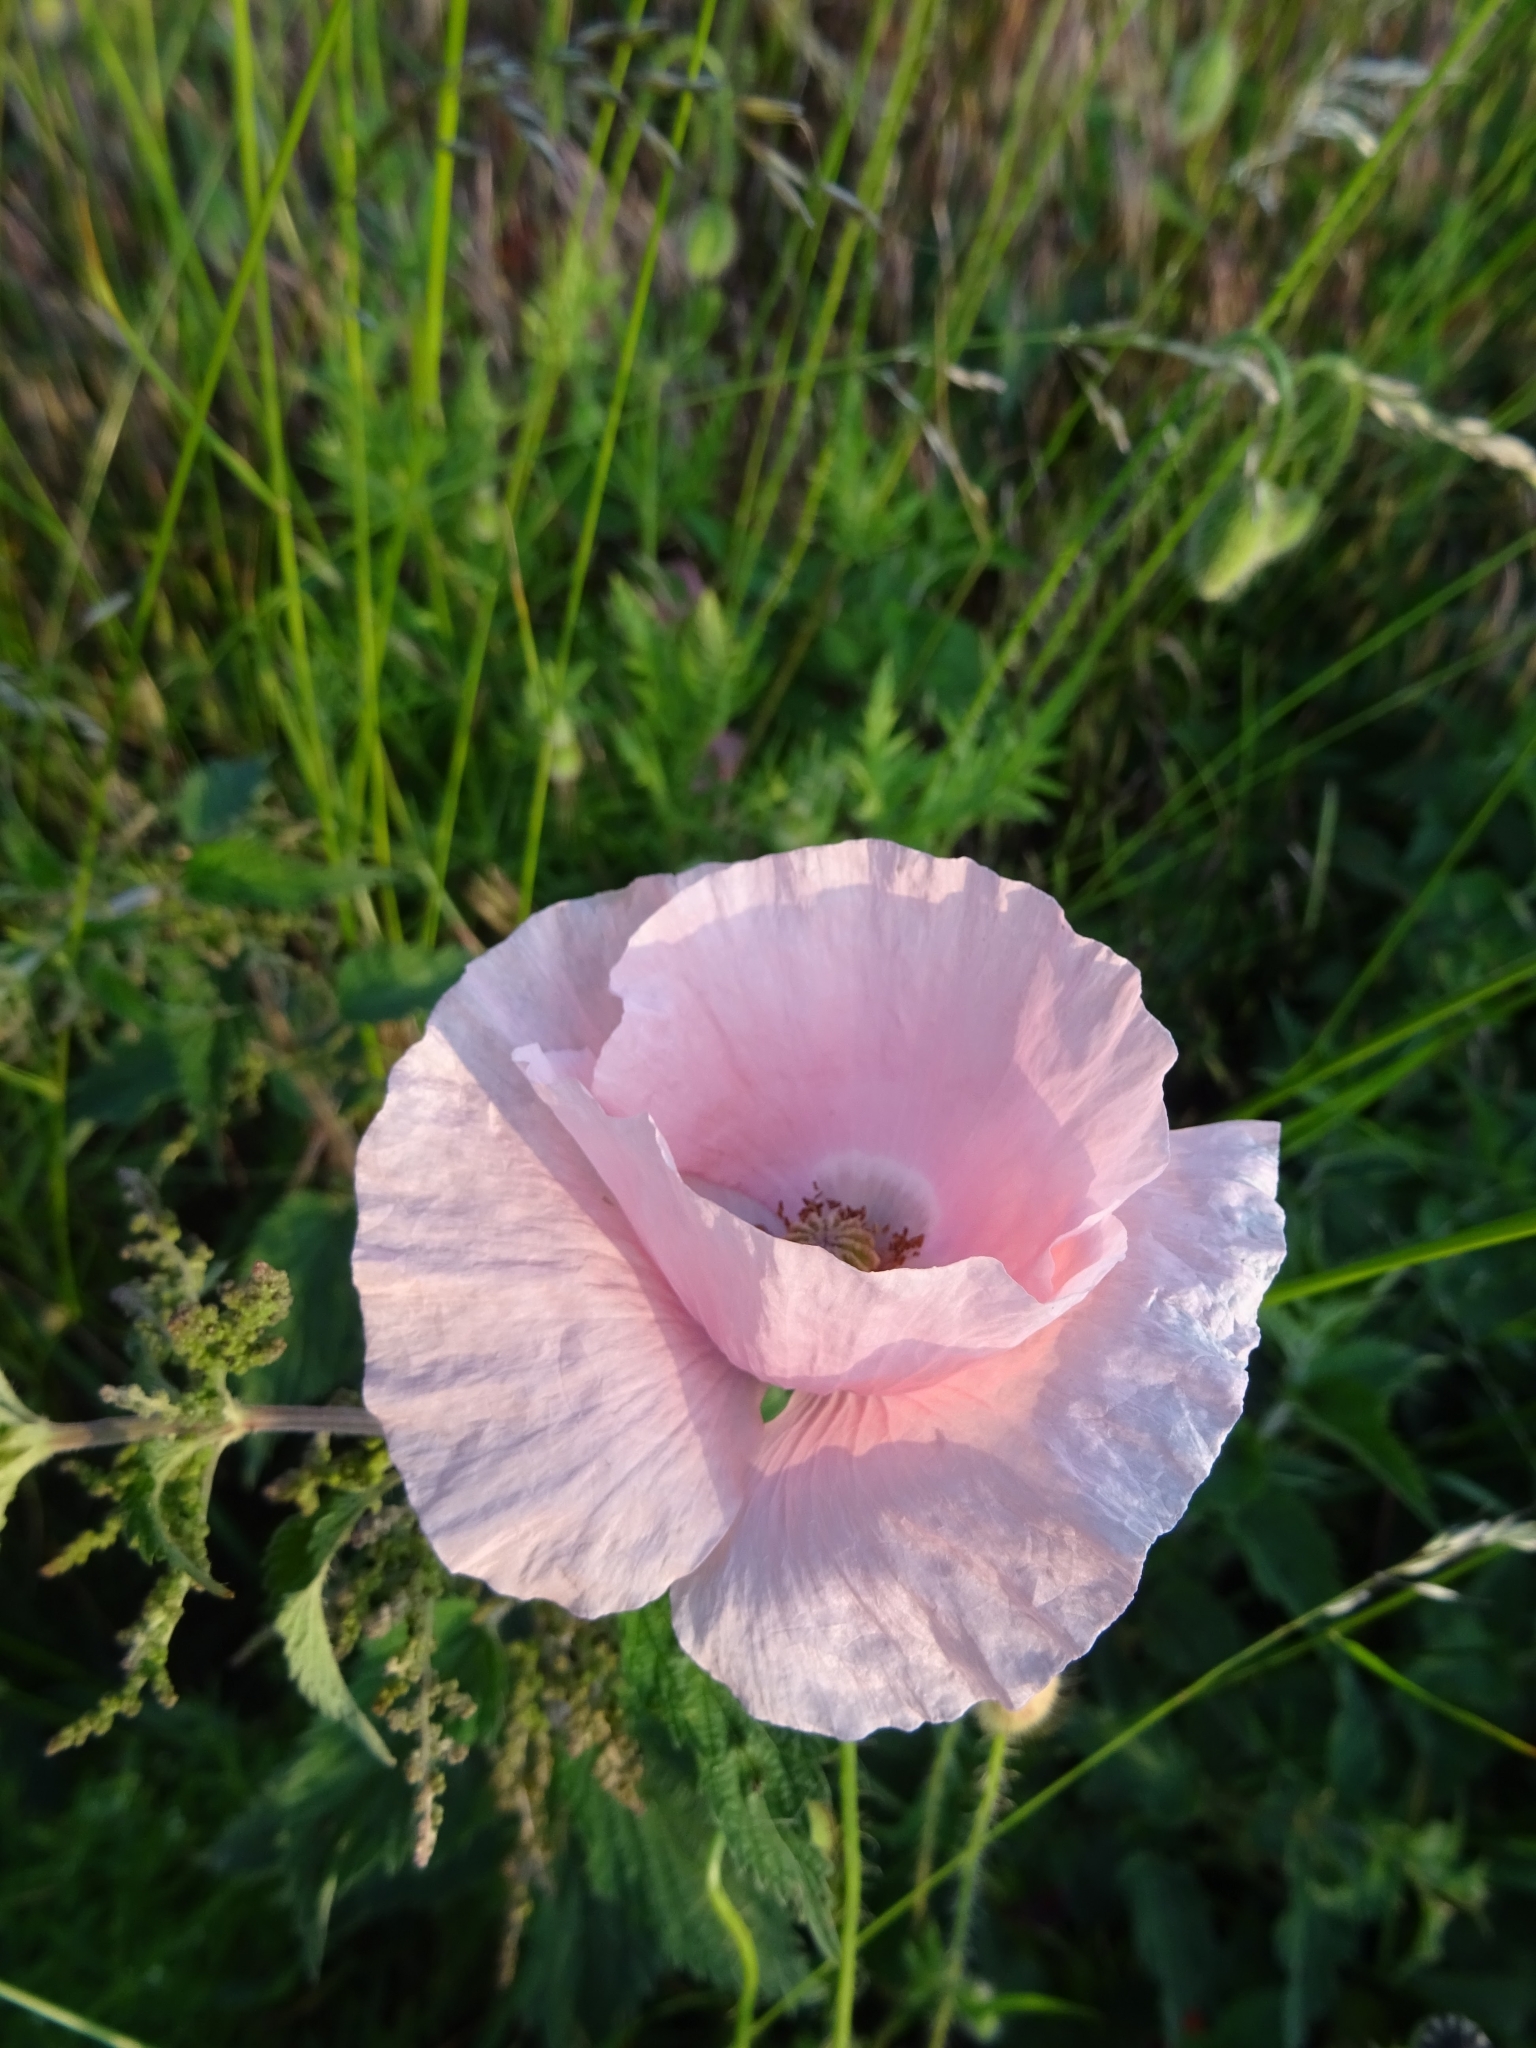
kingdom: Plantae
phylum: Tracheophyta
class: Magnoliopsida
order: Ranunculales
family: Papaveraceae
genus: Papaver
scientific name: Papaver somniferum
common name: Opium poppy
